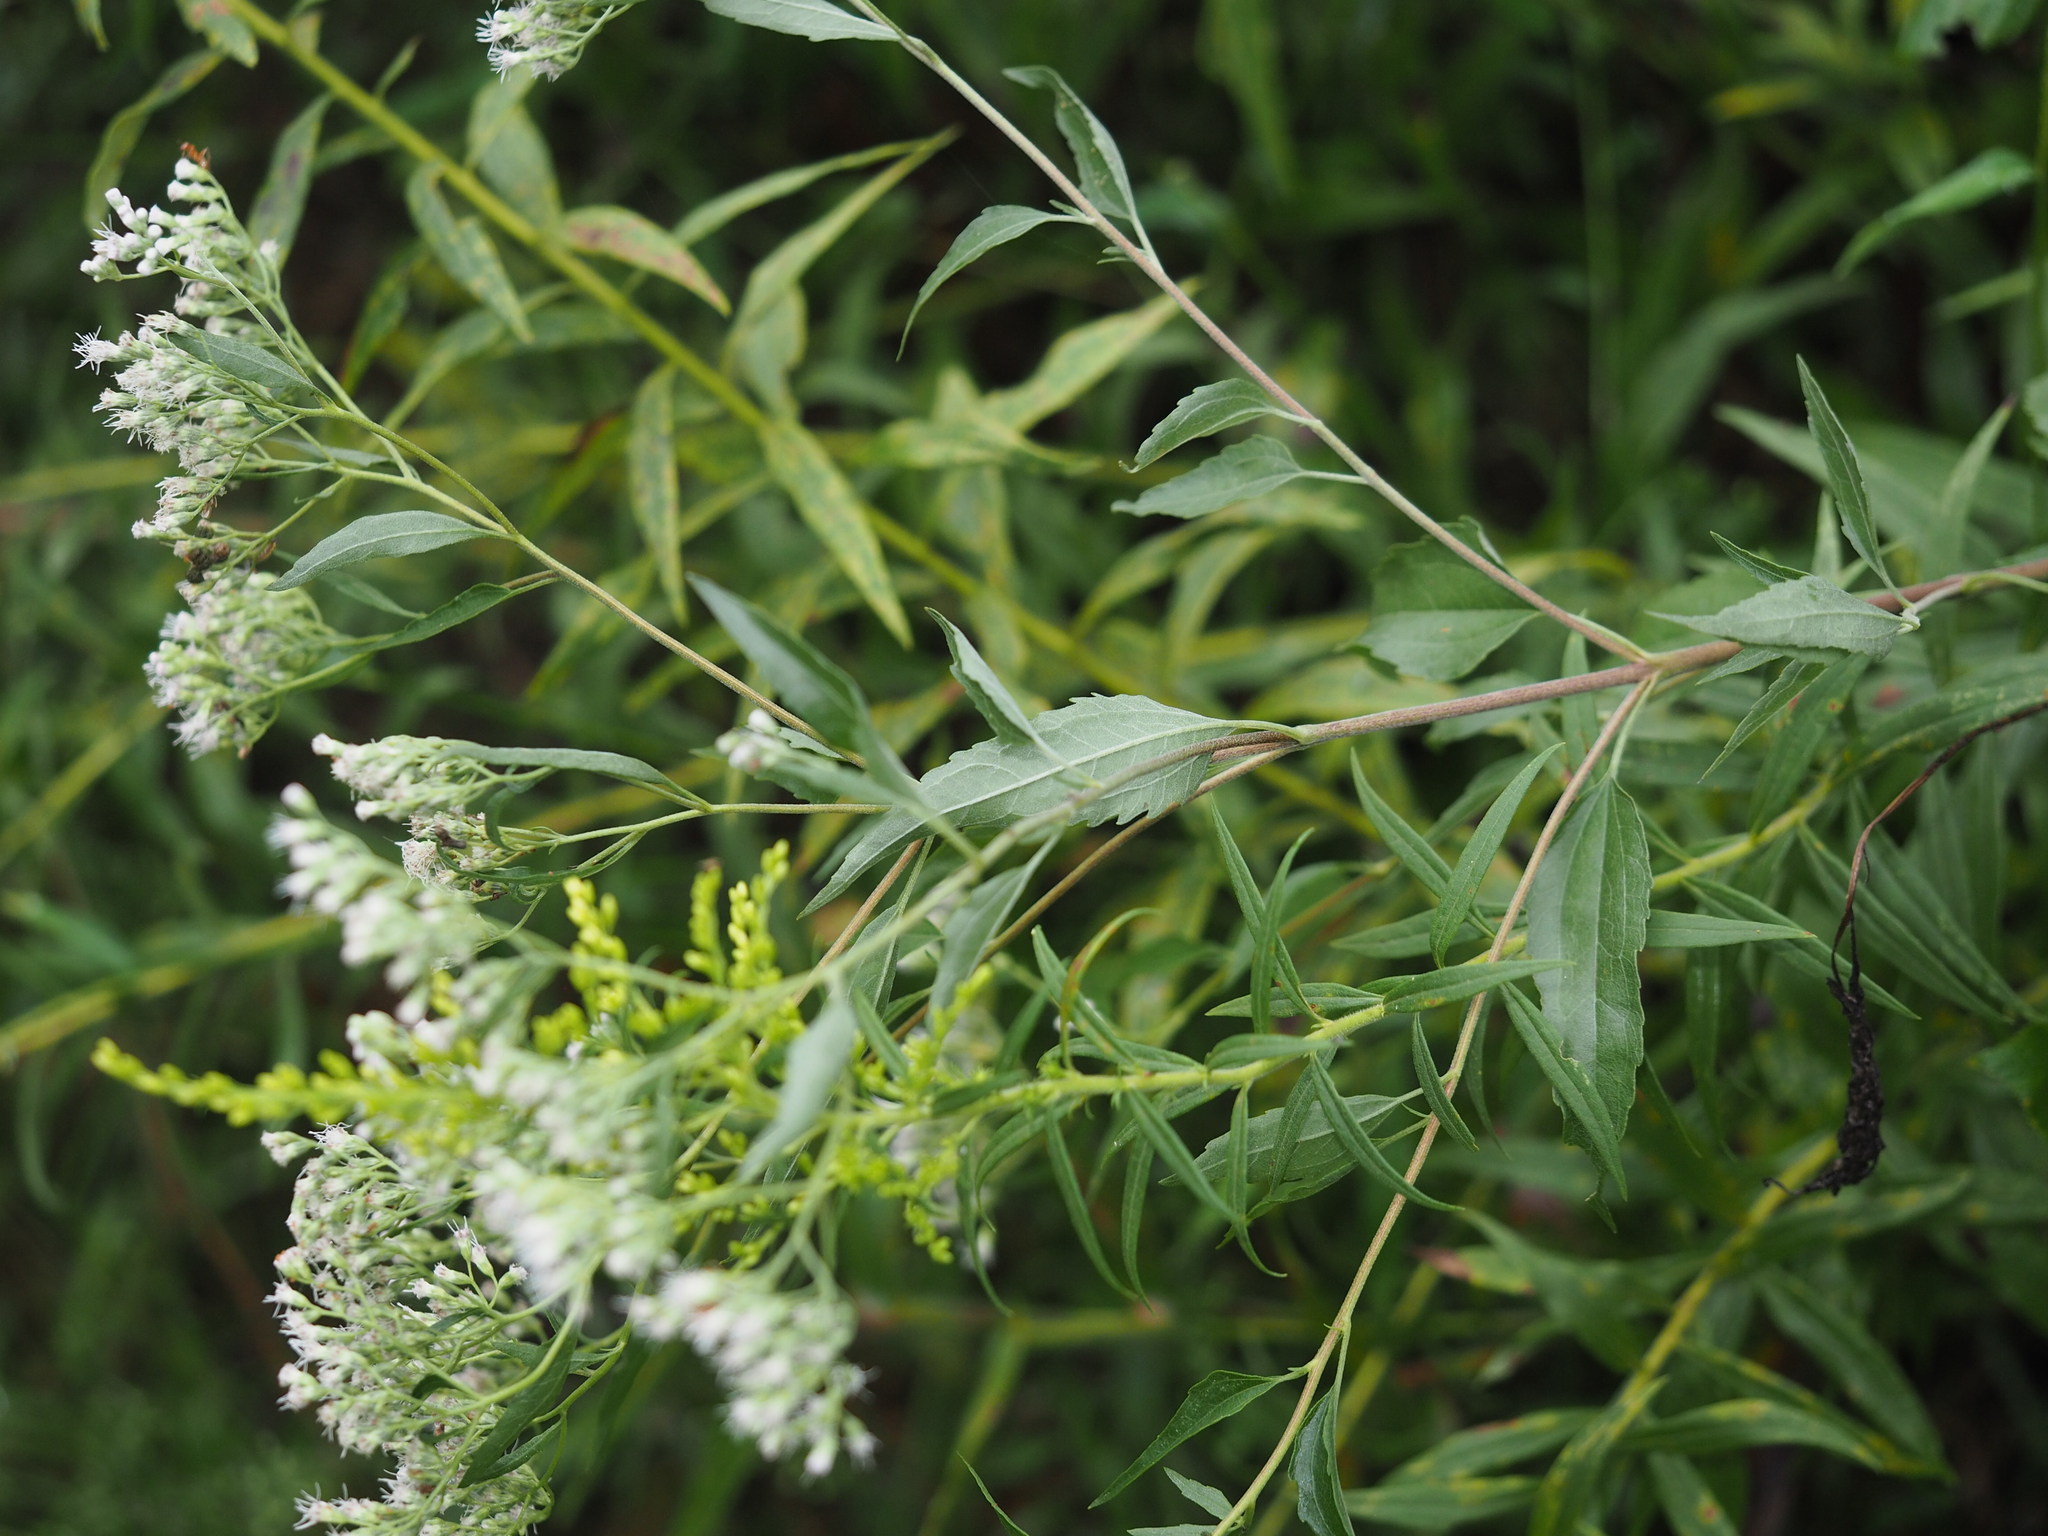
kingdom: Plantae
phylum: Tracheophyta
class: Magnoliopsida
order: Asterales
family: Asteraceae
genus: Eupatorium
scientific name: Eupatorium serotinum
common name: Late boneset
